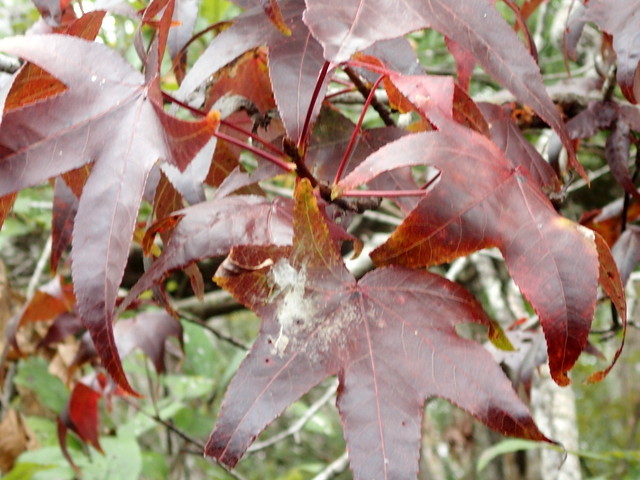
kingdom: Plantae
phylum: Tracheophyta
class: Magnoliopsida
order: Saxifragales
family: Altingiaceae
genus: Liquidambar
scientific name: Liquidambar styraciflua
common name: Sweet gum
